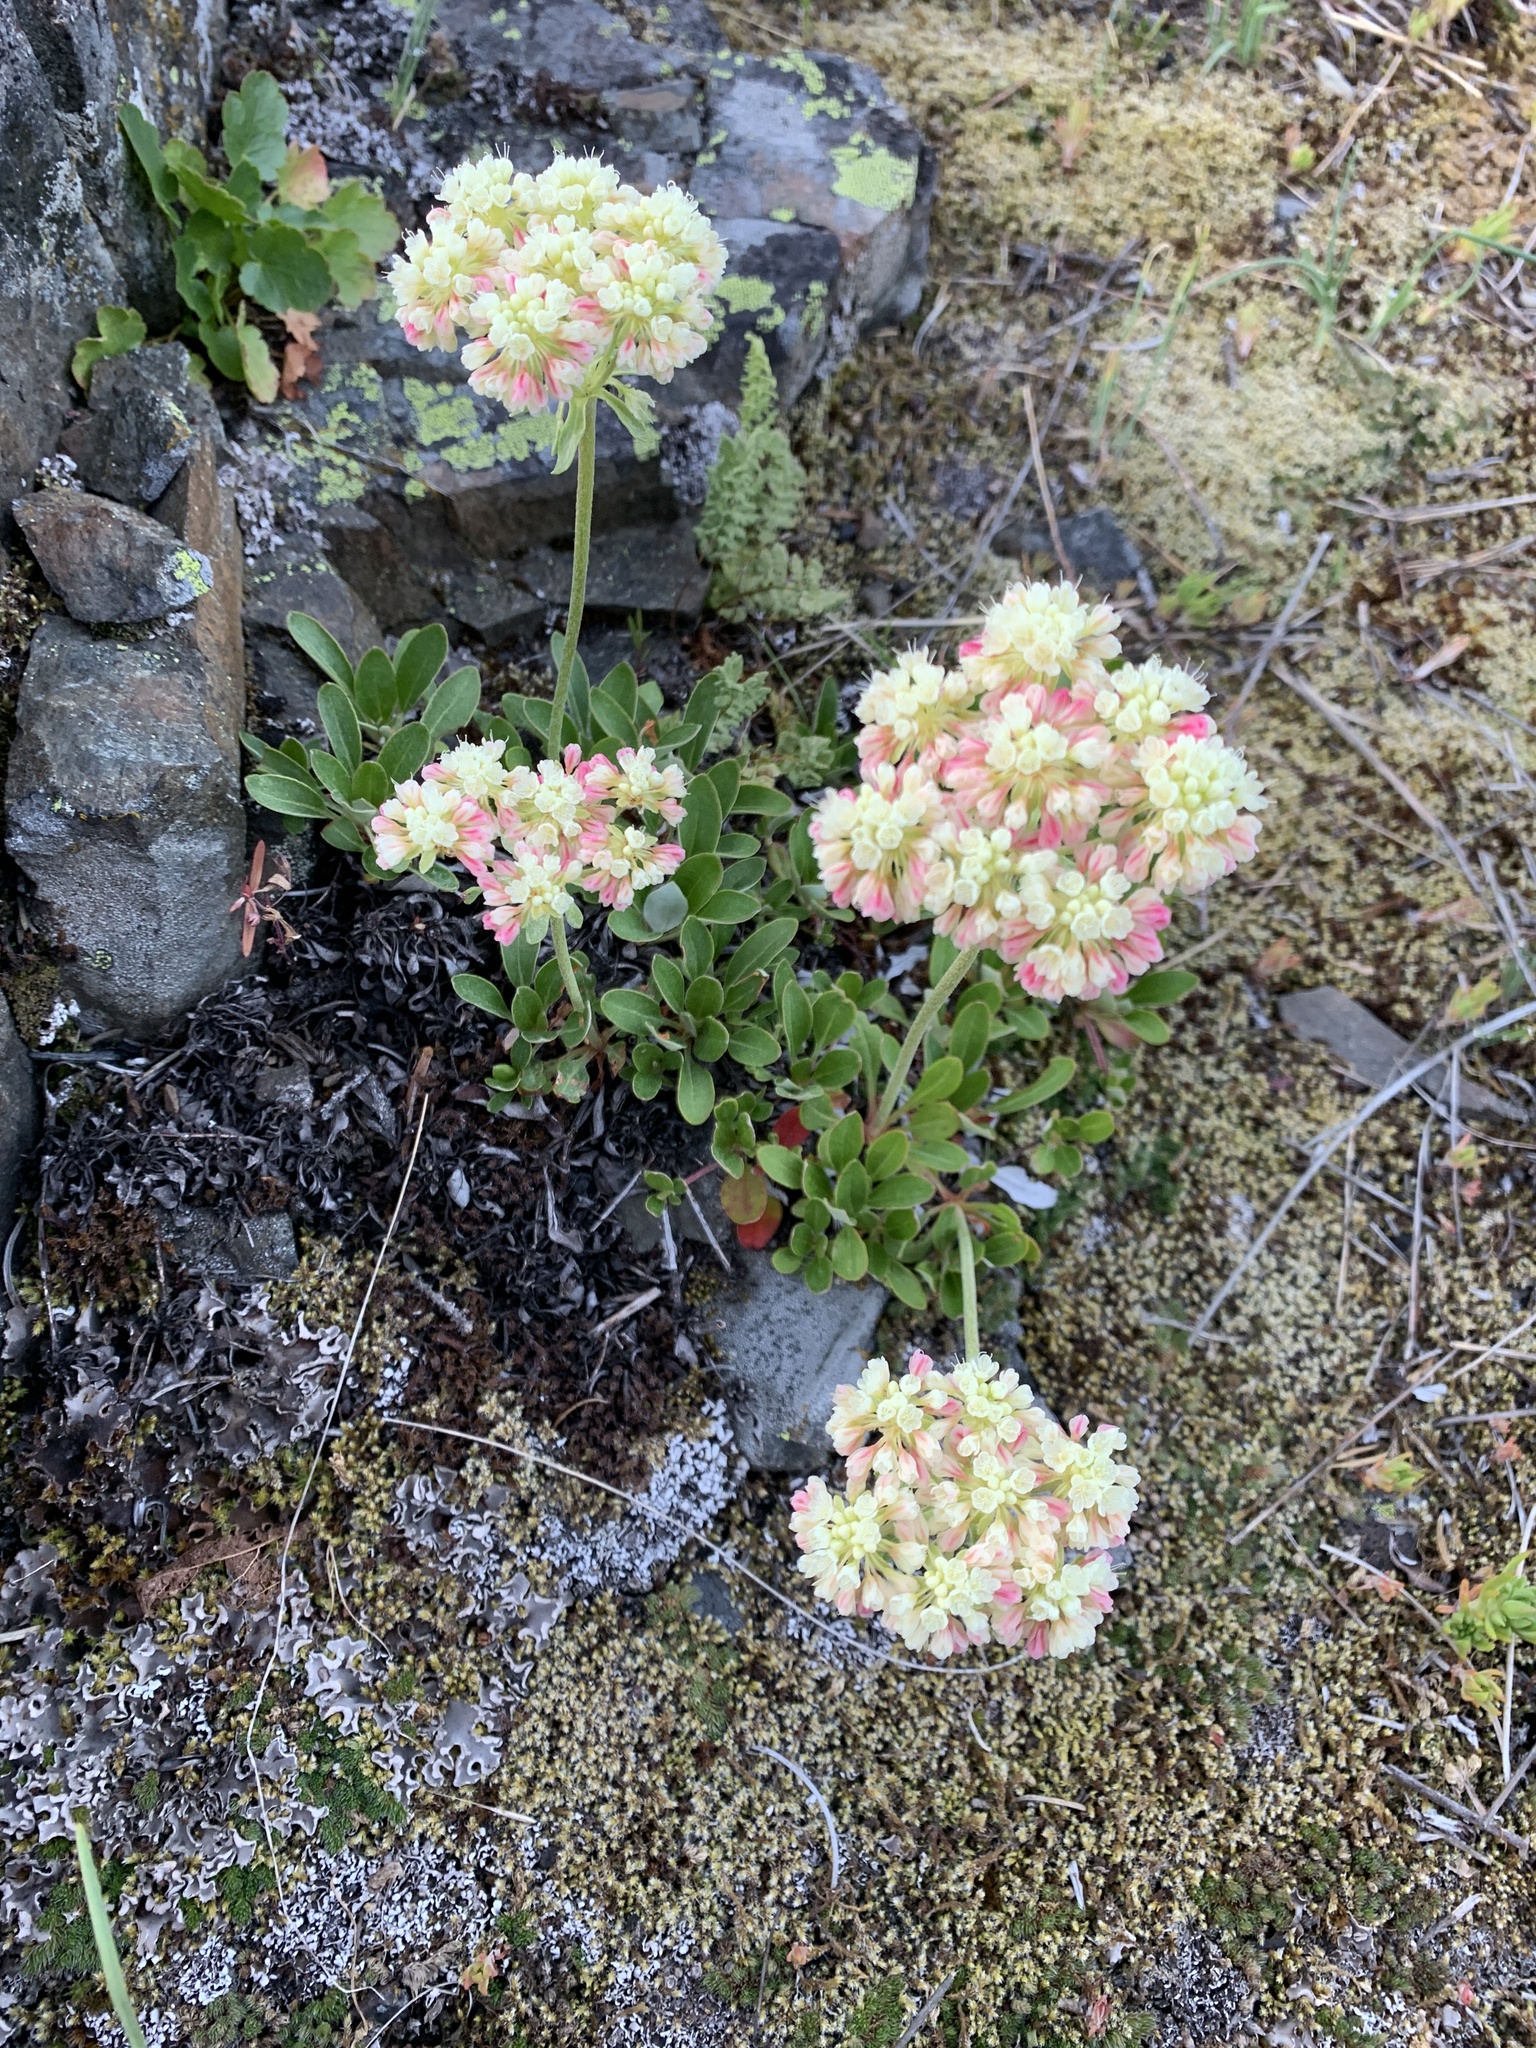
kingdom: Plantae
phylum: Tracheophyta
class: Magnoliopsida
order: Caryophyllales
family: Polygonaceae
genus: Eriogonum
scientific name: Eriogonum umbellatum
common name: Sulfur-buckwheat
